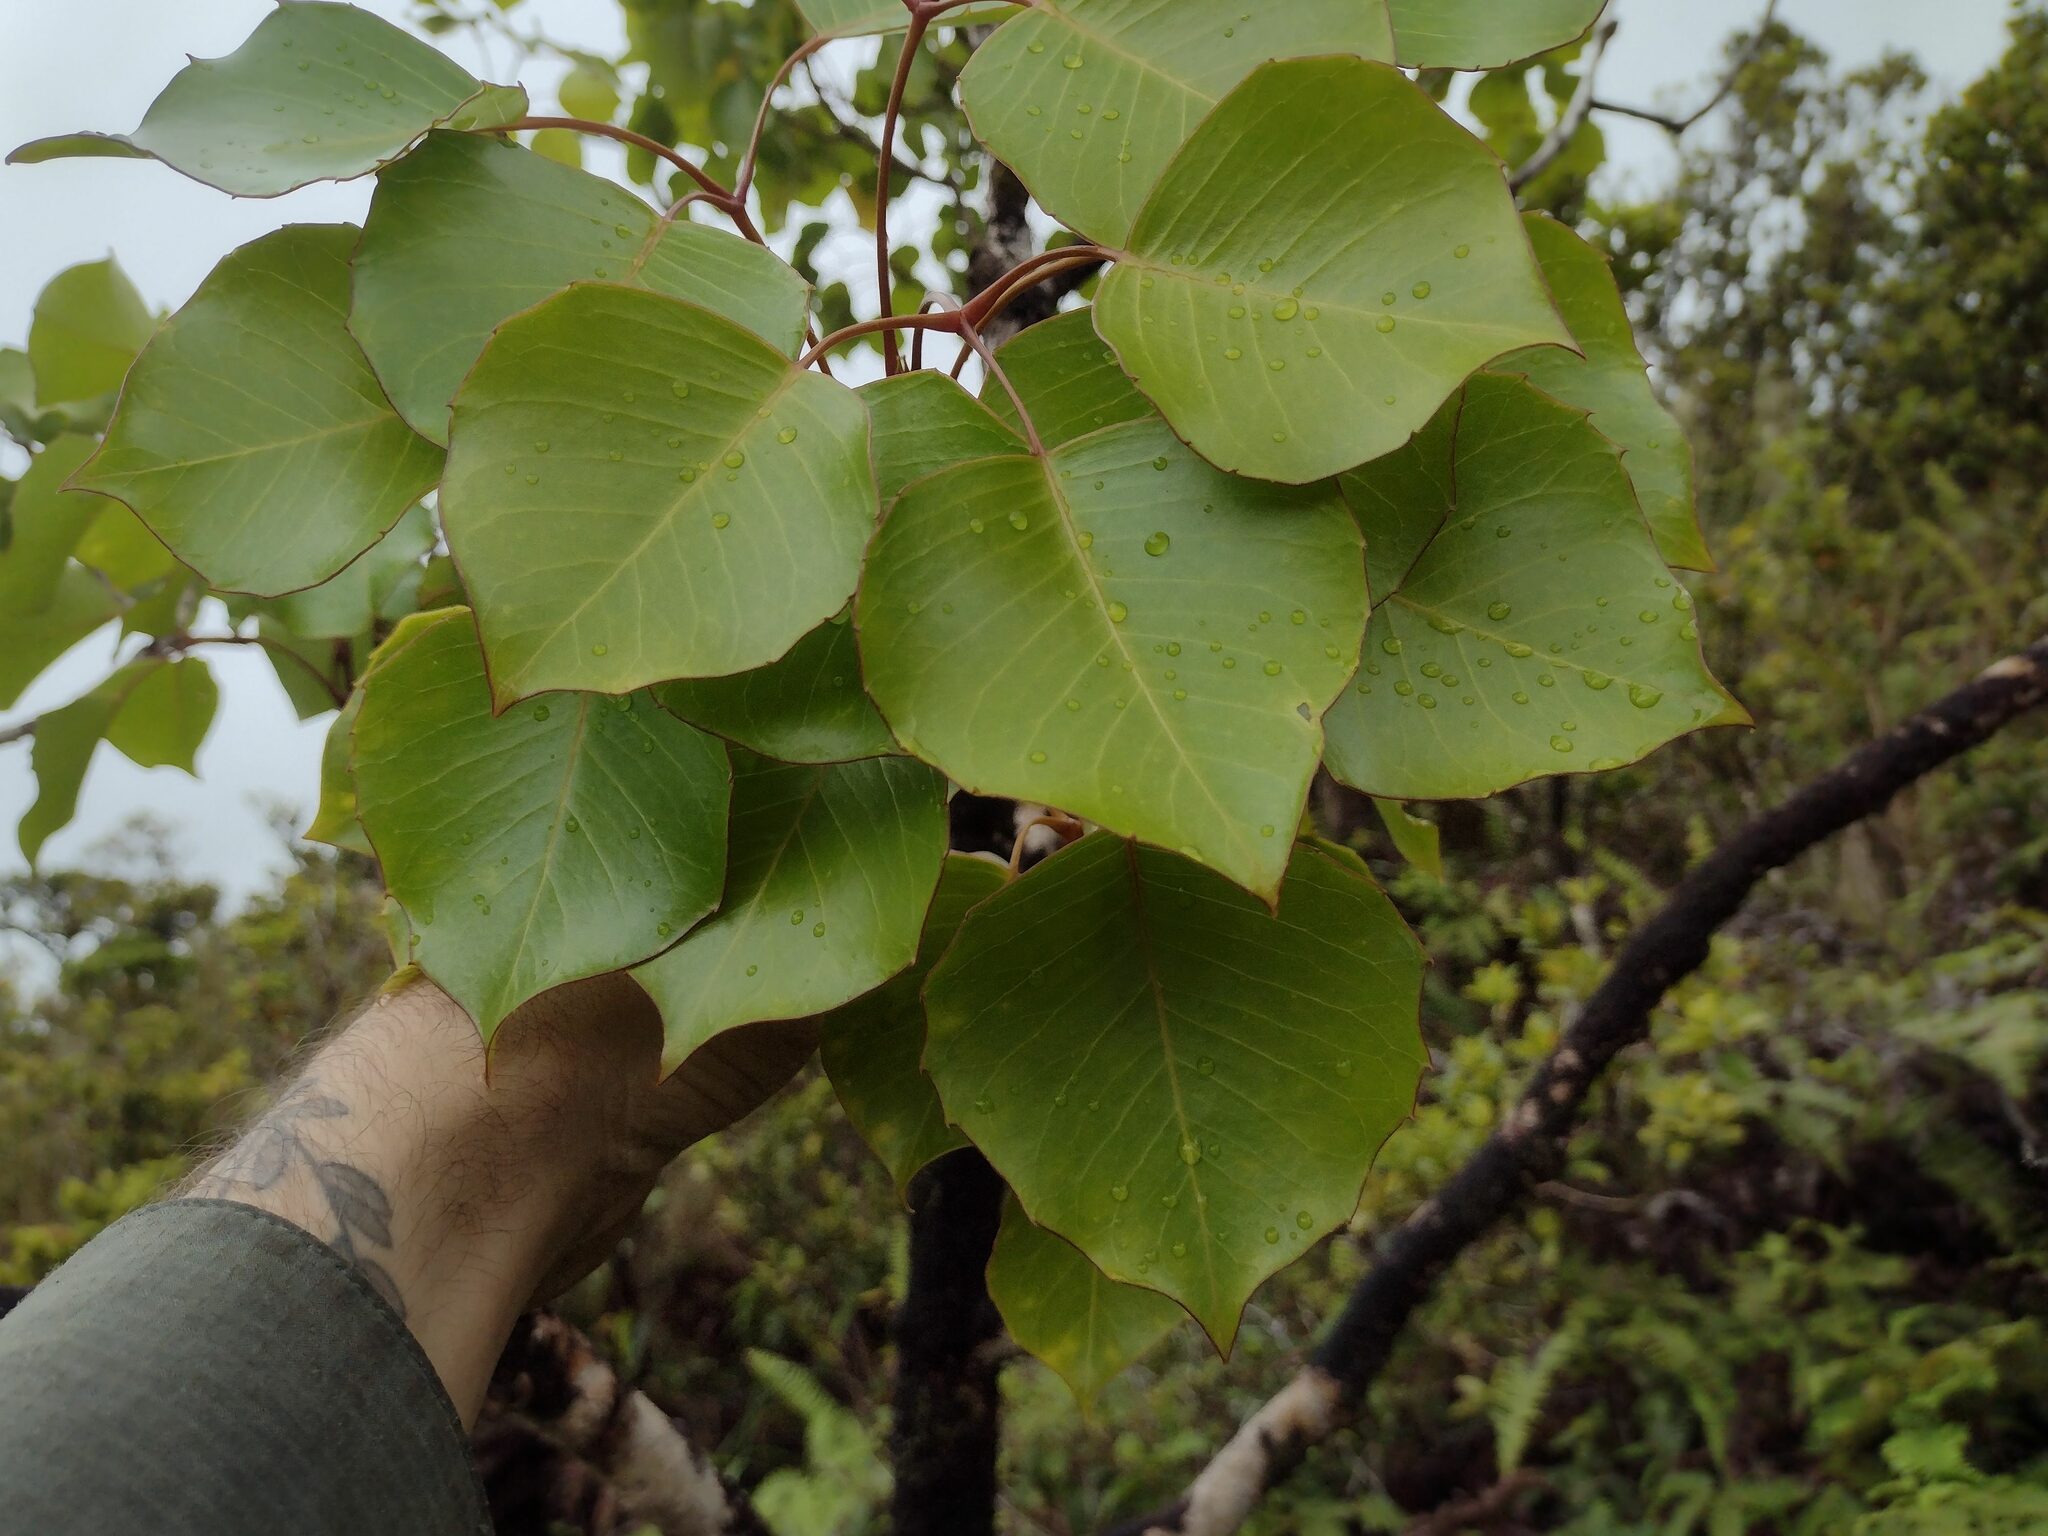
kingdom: Plantae
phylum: Tracheophyta
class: Magnoliopsida
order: Apiales
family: Araliaceae
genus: Cheirodendron
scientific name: Cheirodendron fauriei
